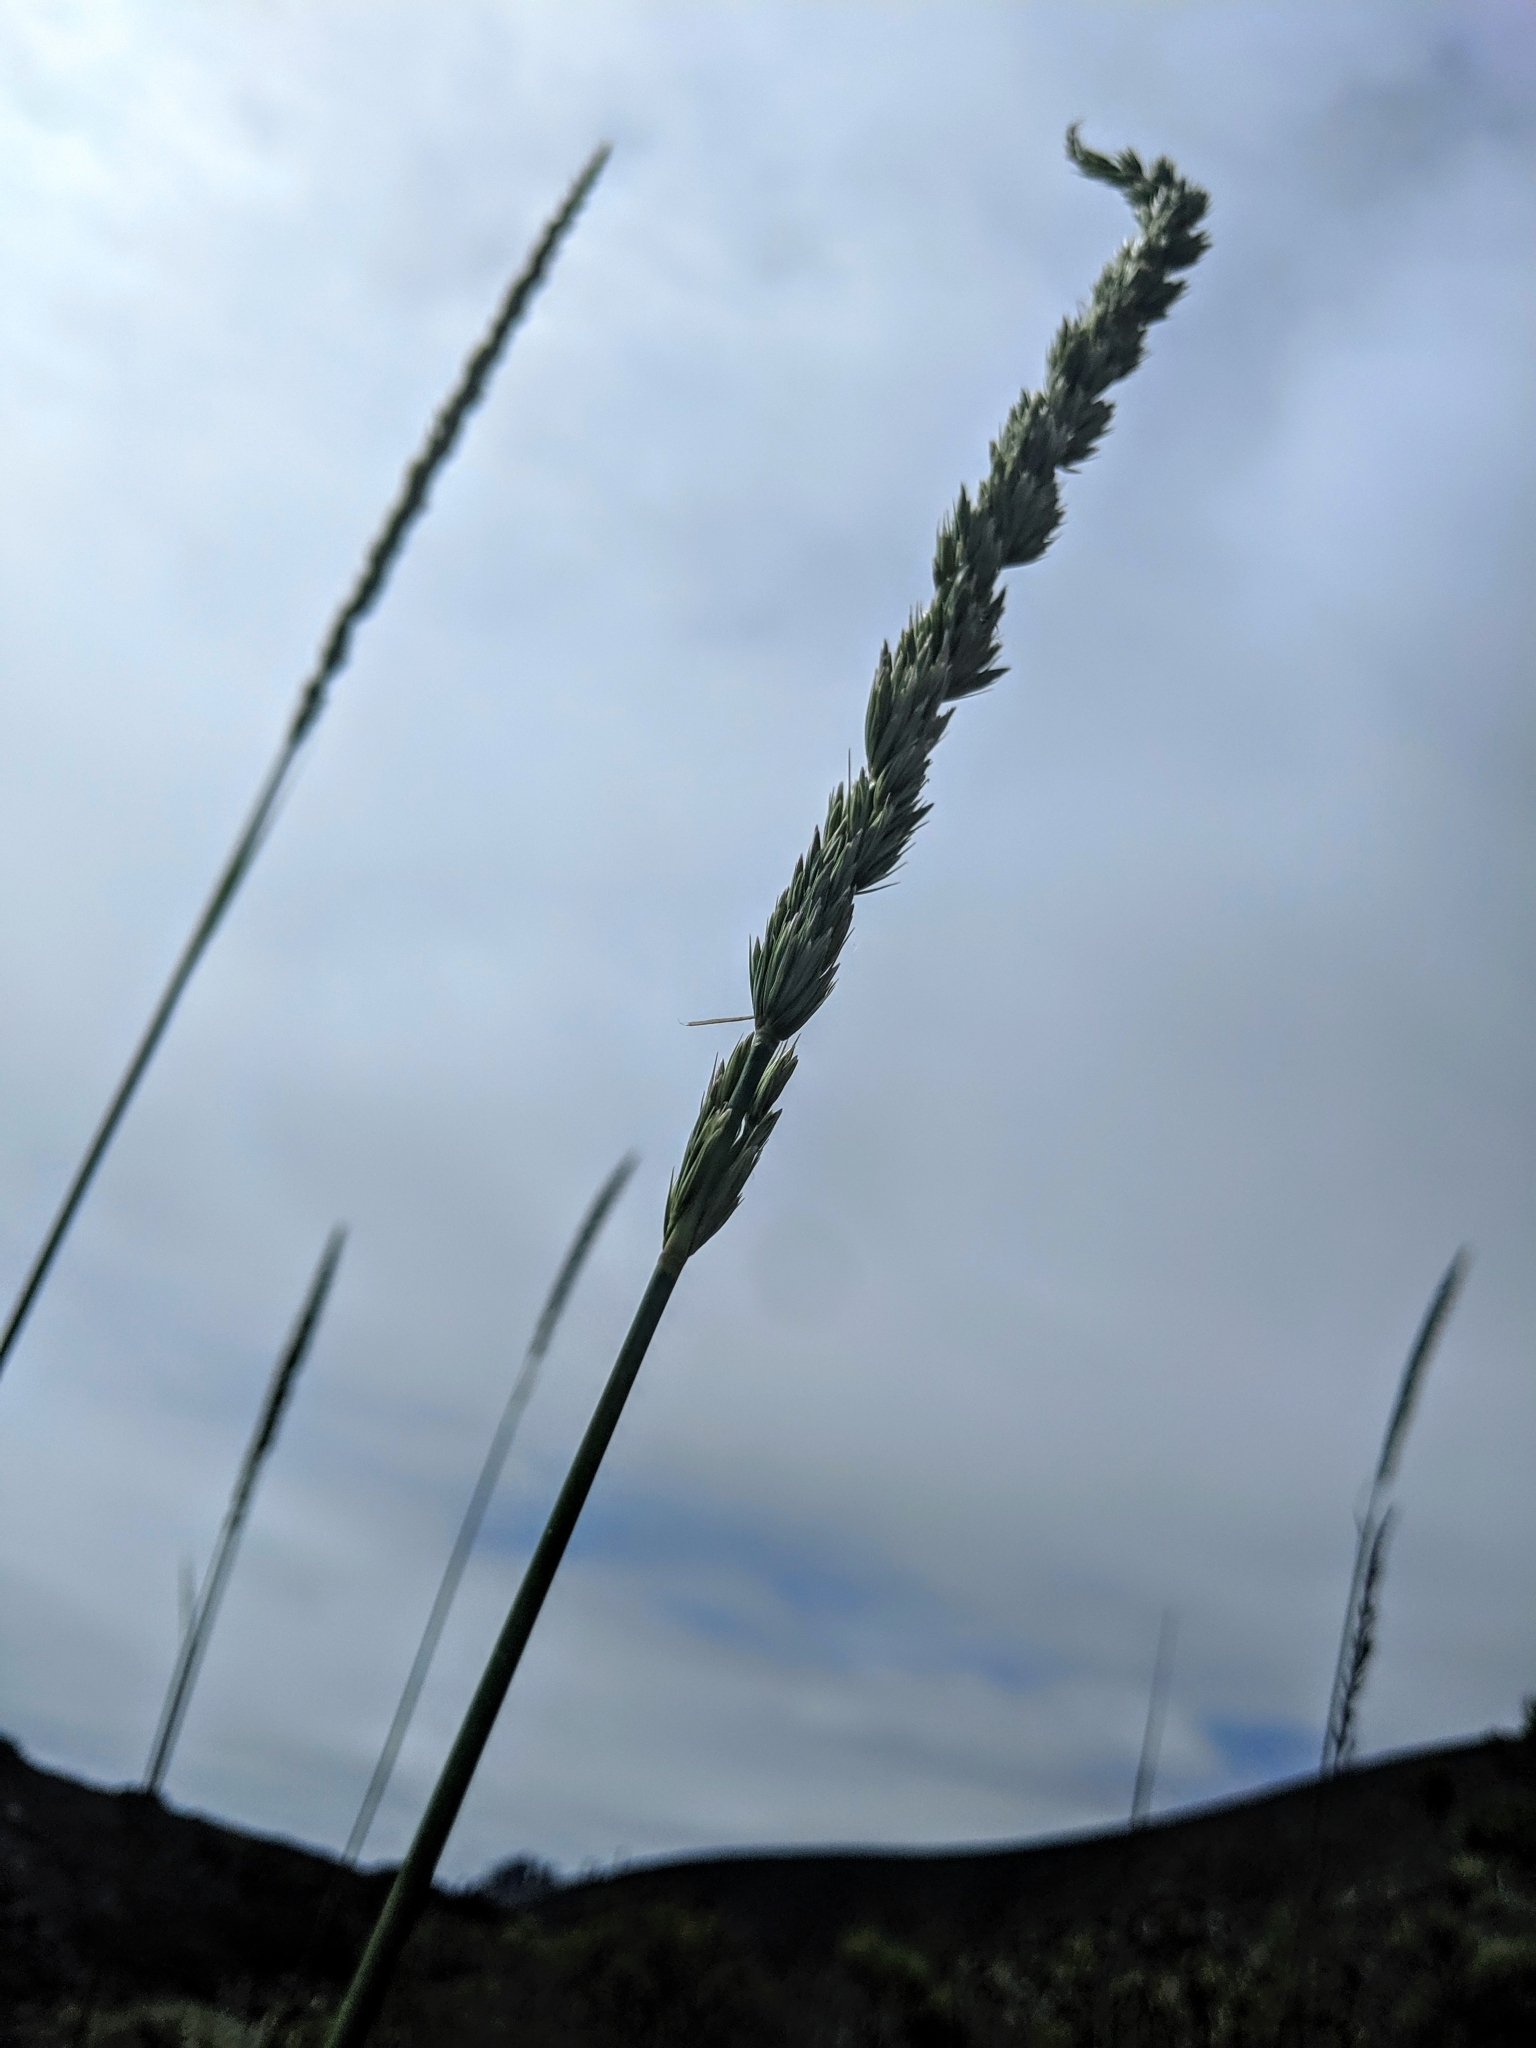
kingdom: Plantae
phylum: Tracheophyta
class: Liliopsida
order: Poales
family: Poaceae
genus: Leymus
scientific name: Leymus condensatus
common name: Giant wild rye
